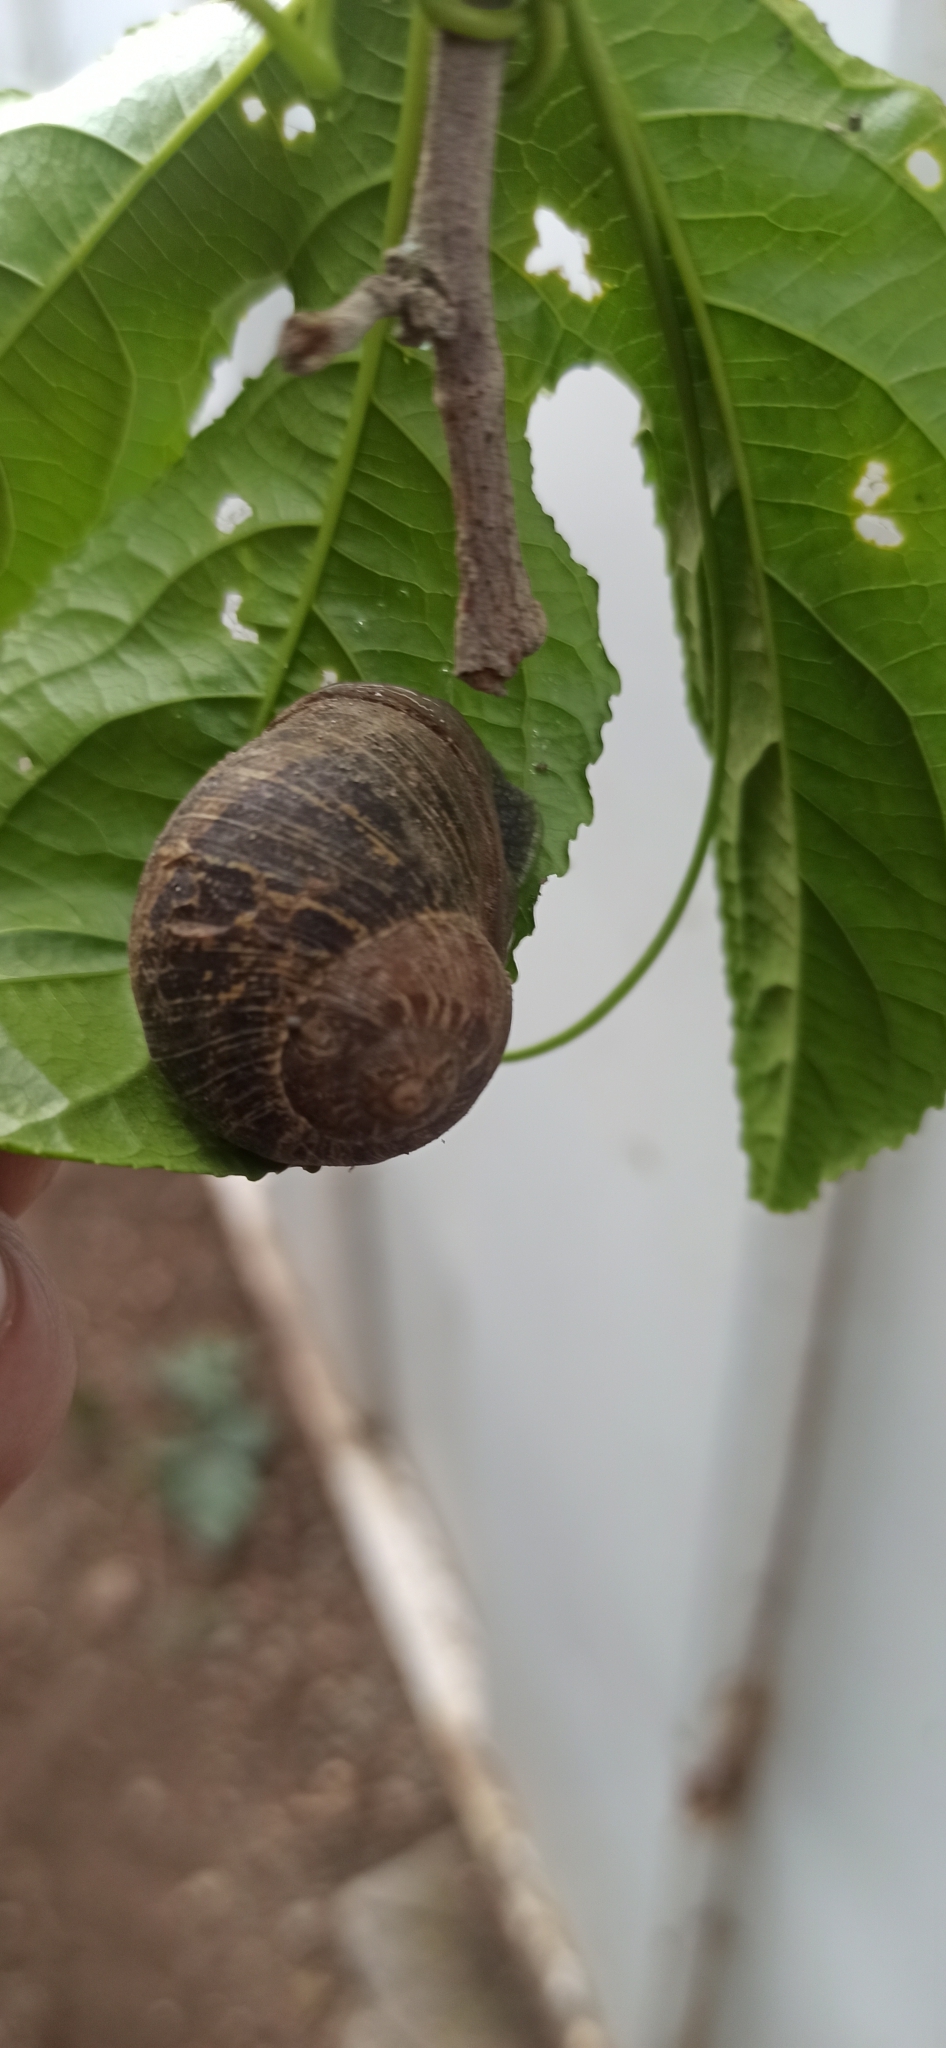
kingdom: Animalia
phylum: Mollusca
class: Gastropoda
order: Stylommatophora
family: Helicidae
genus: Cornu
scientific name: Cornu aspersum
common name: Brown garden snail
